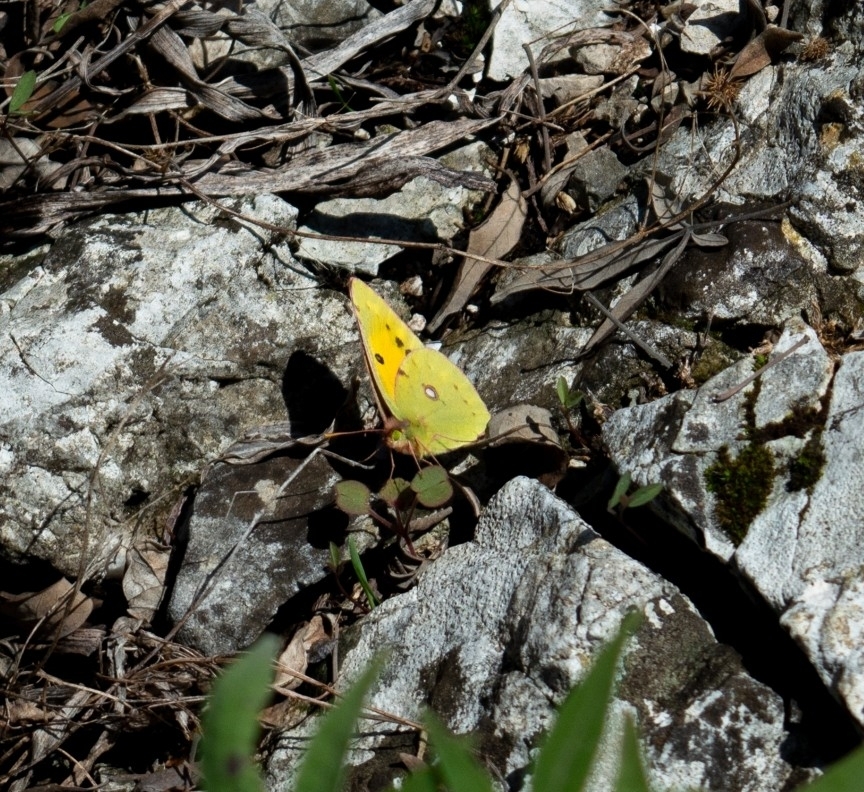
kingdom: Animalia
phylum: Arthropoda
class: Insecta
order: Lepidoptera
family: Pieridae
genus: Colias
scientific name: Colias croceus
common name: Clouded yellow
